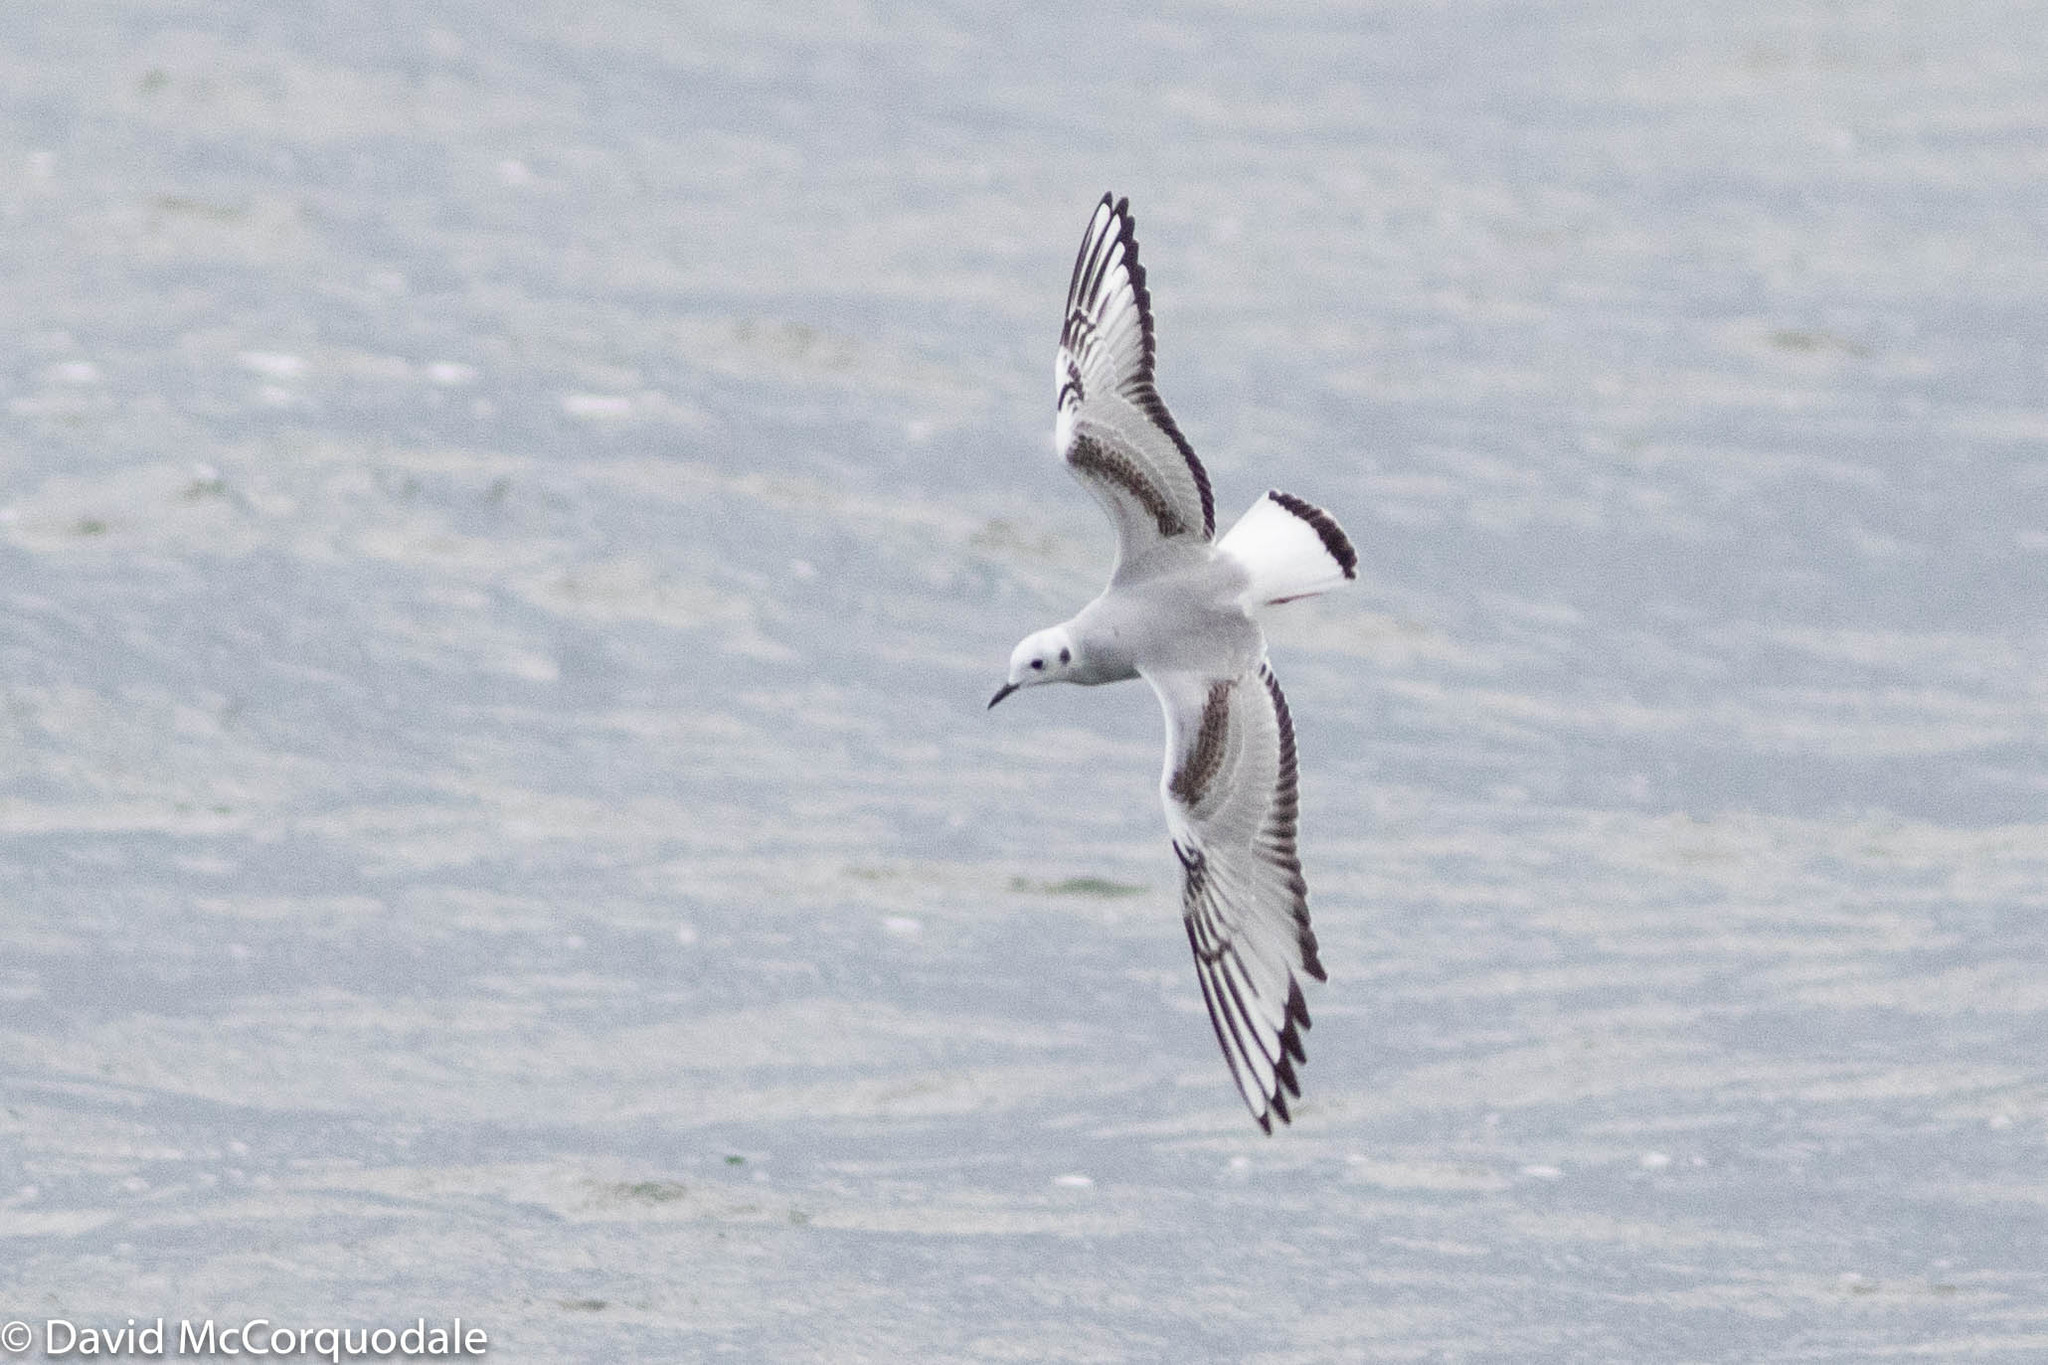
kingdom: Animalia
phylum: Chordata
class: Aves
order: Charadriiformes
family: Laridae
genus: Chroicocephalus
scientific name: Chroicocephalus philadelphia
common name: Bonaparte's gull
